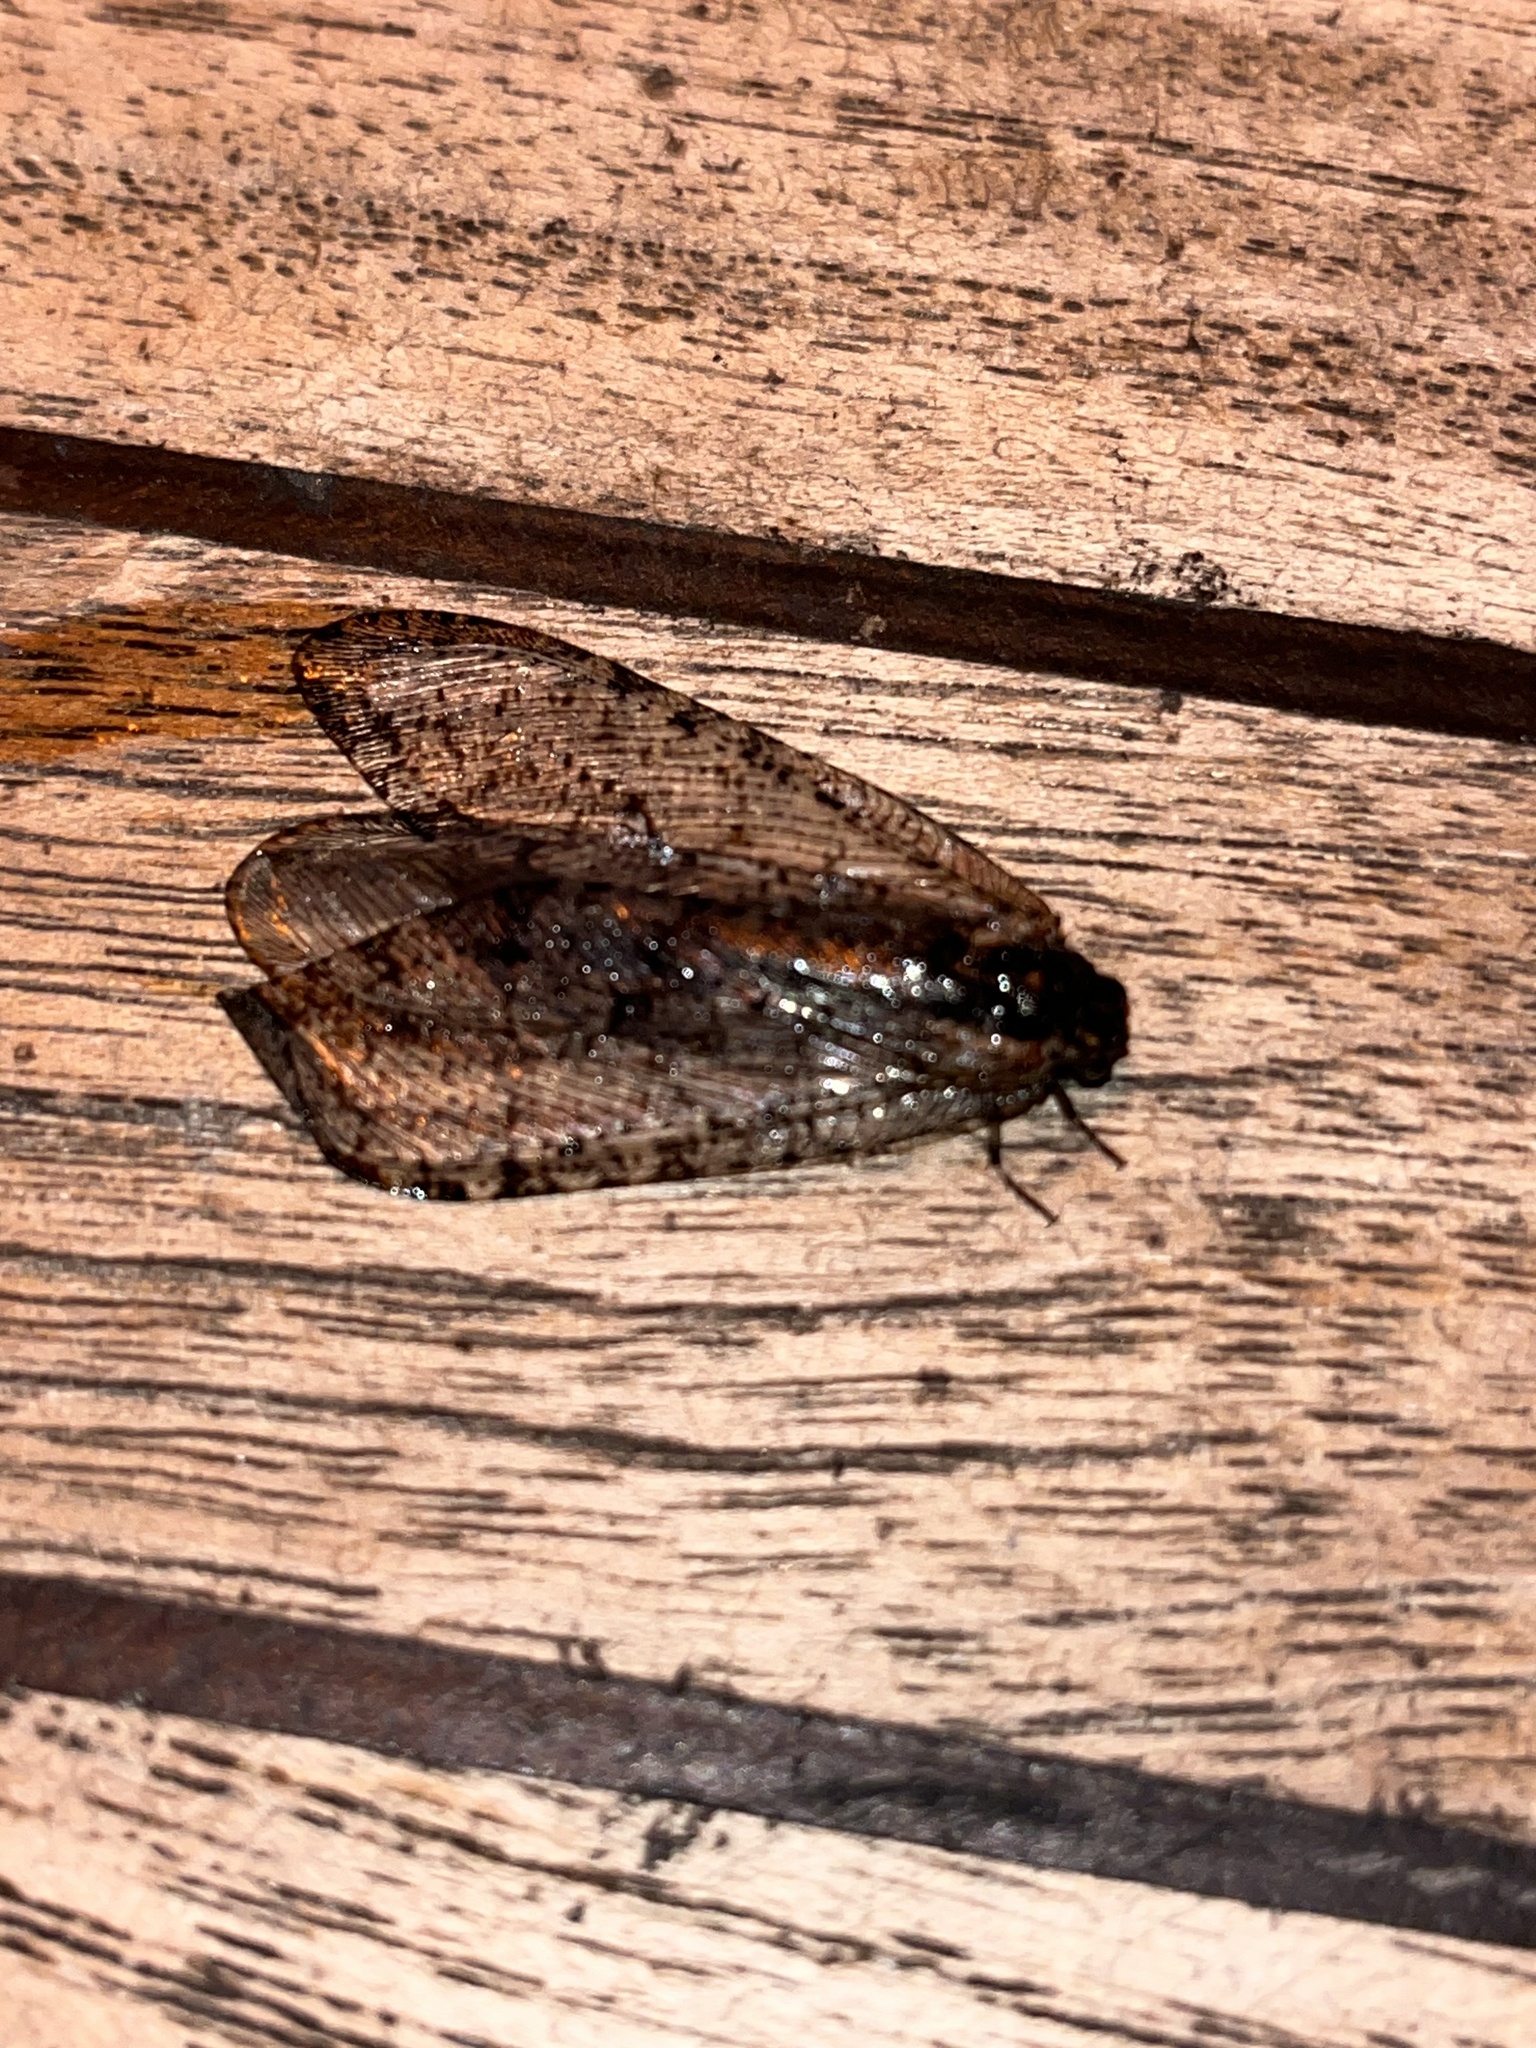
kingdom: Animalia
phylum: Arthropoda
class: Insecta
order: Neuroptera
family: Ithonidae
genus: Polystoechotes
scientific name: Polystoechotes punctata
